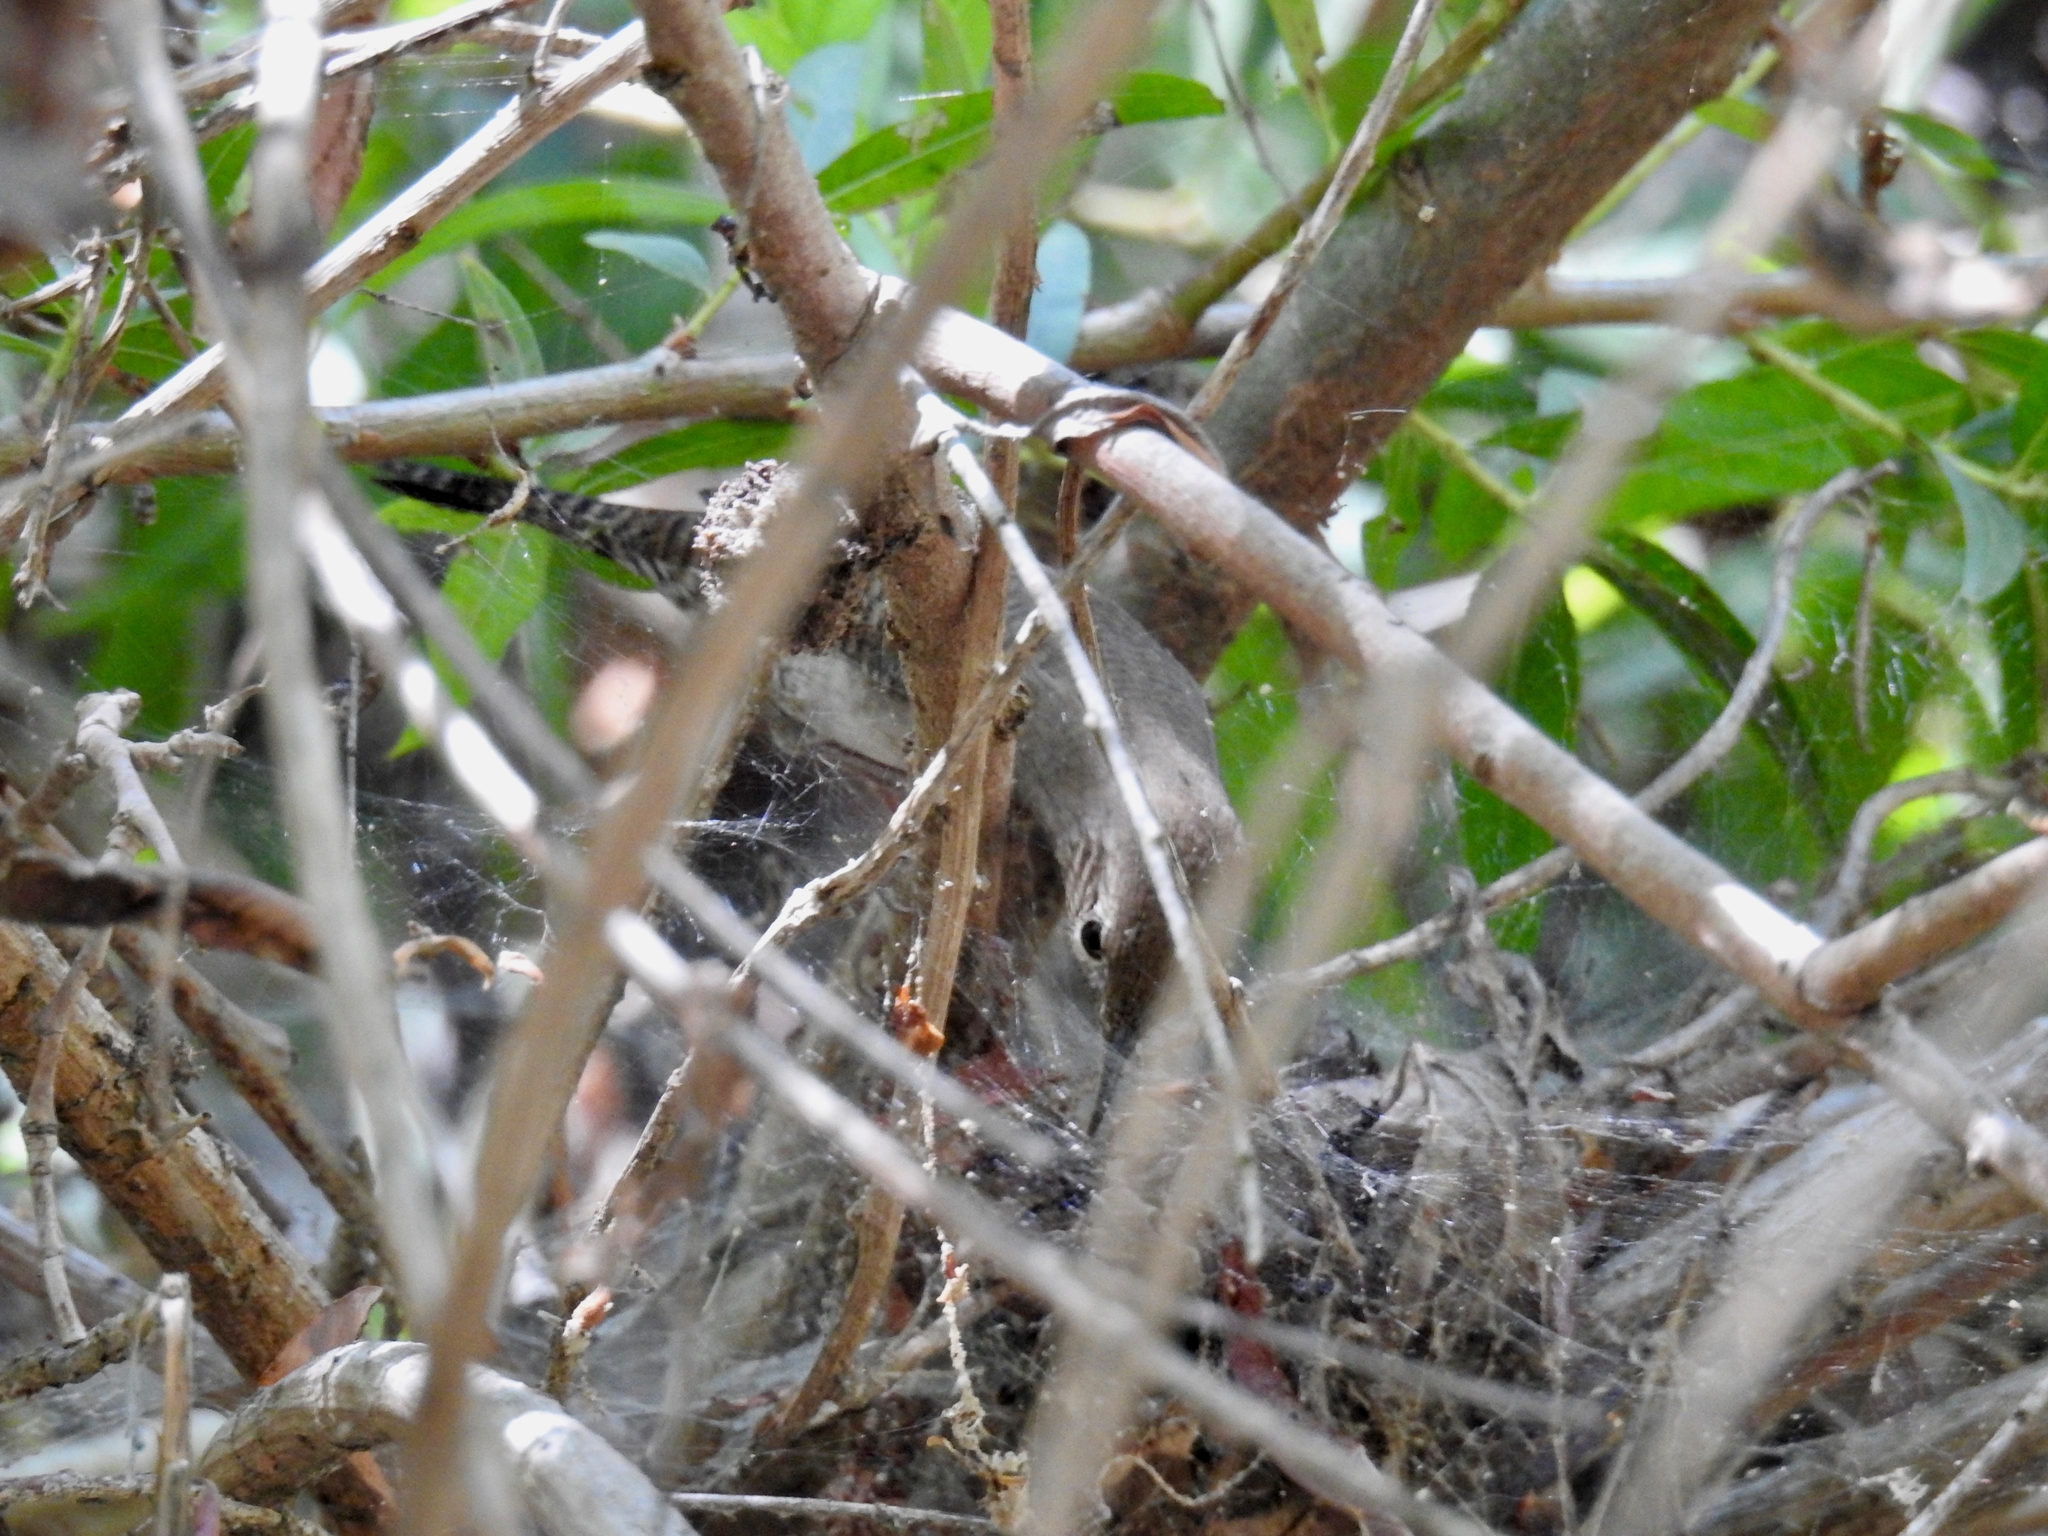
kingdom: Animalia
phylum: Chordata
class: Aves
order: Passeriformes
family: Troglodytidae
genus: Troglodytes
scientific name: Troglodytes aedon
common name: House wren
